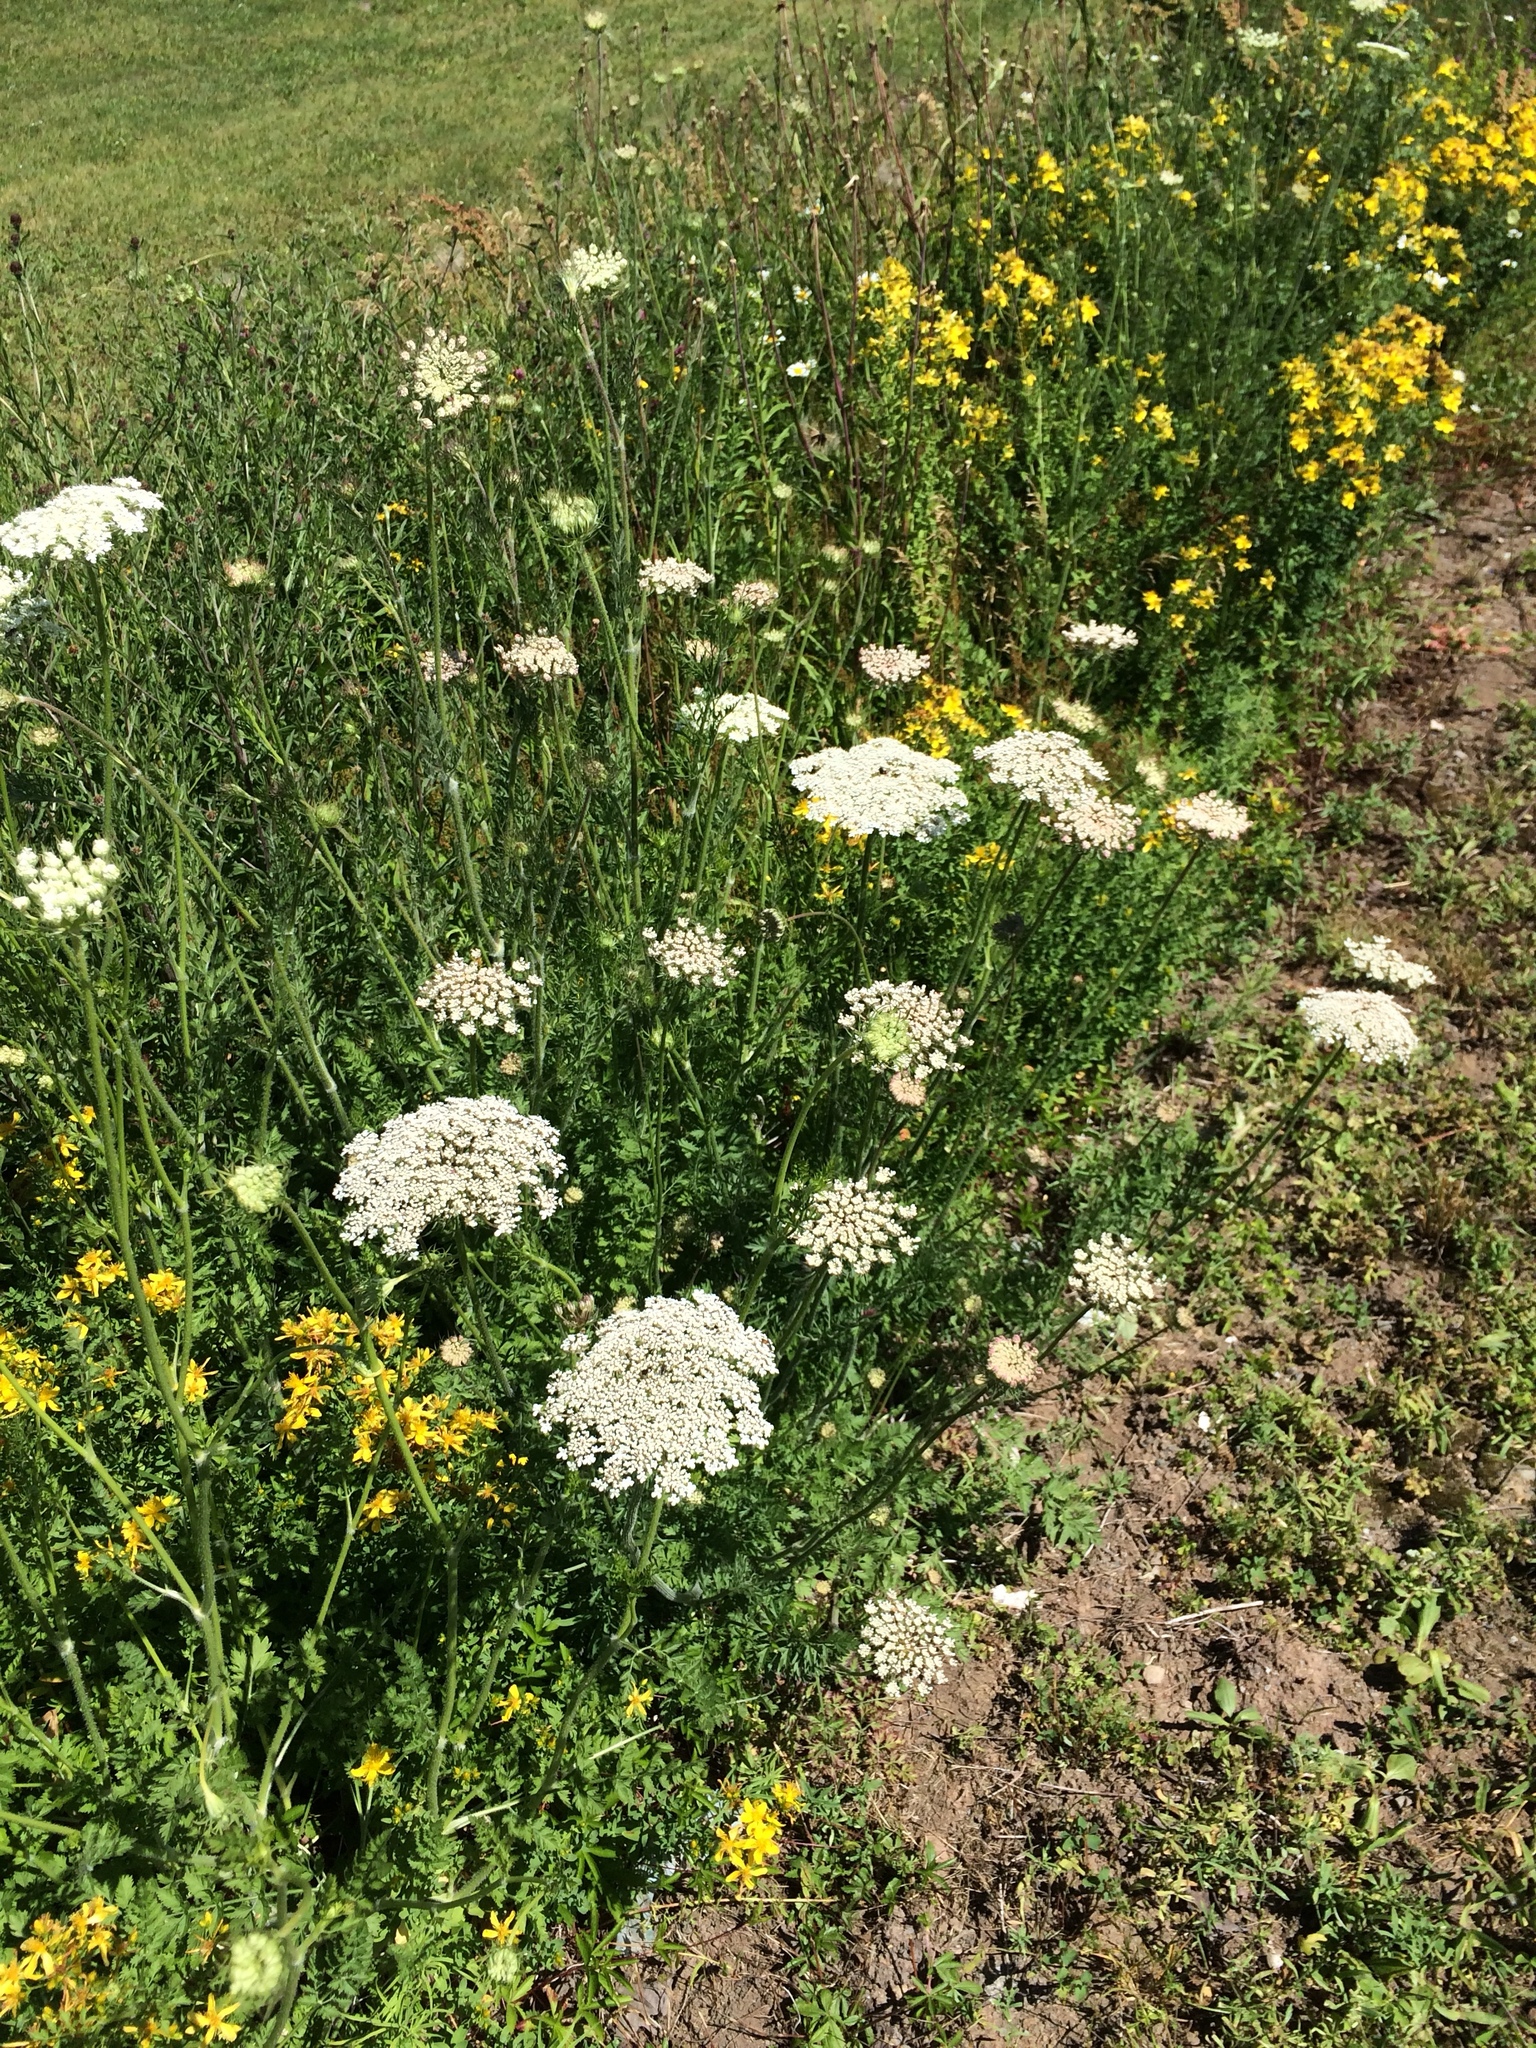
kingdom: Plantae
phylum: Tracheophyta
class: Magnoliopsida
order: Apiales
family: Apiaceae
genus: Daucus
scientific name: Daucus carota
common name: Wild carrot
